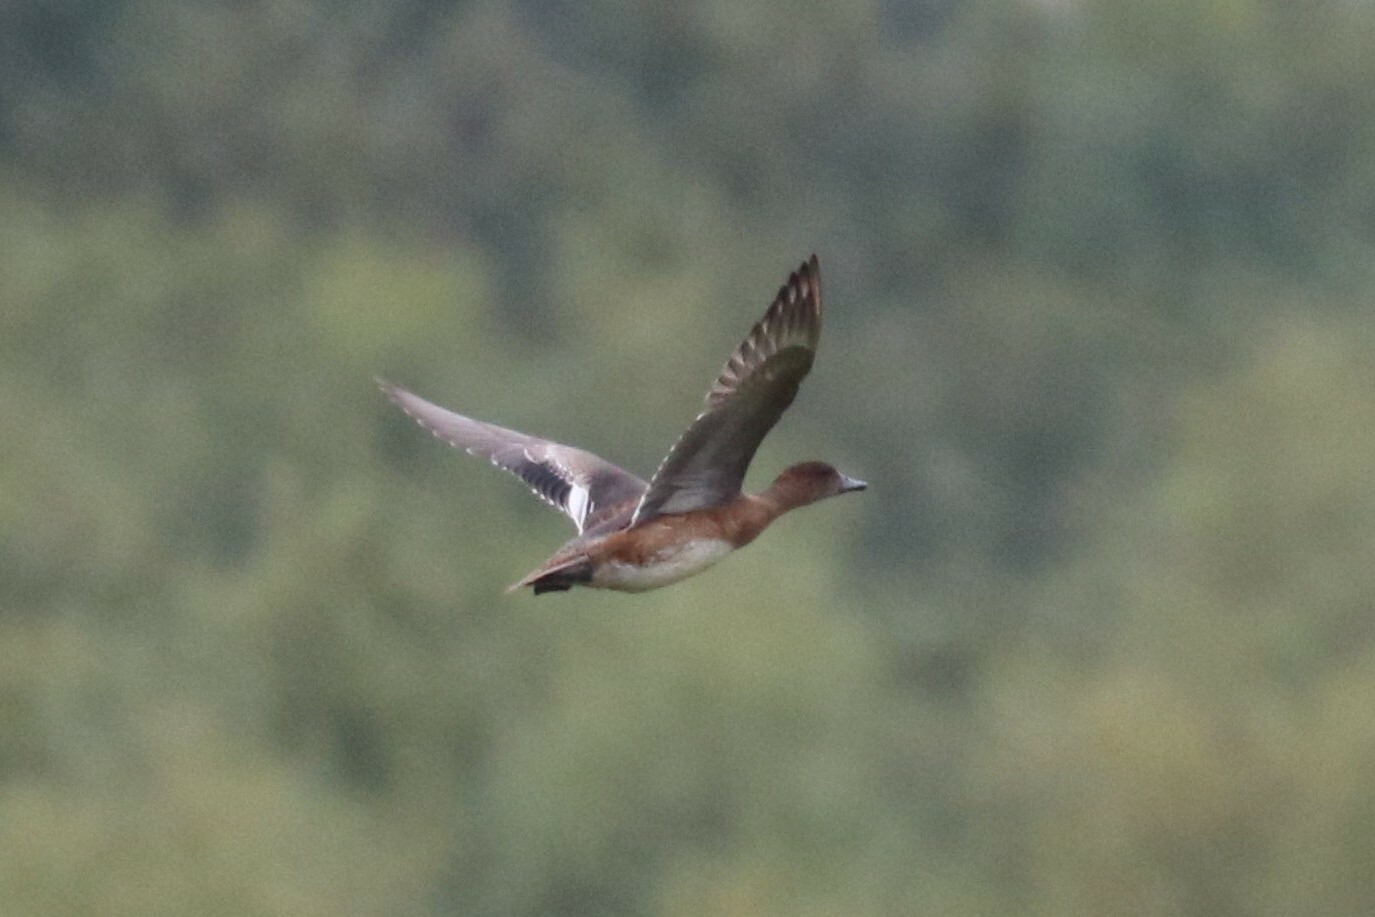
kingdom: Animalia
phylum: Chordata
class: Aves
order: Anseriformes
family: Anatidae
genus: Mareca
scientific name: Mareca penelope
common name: Eurasian wigeon
